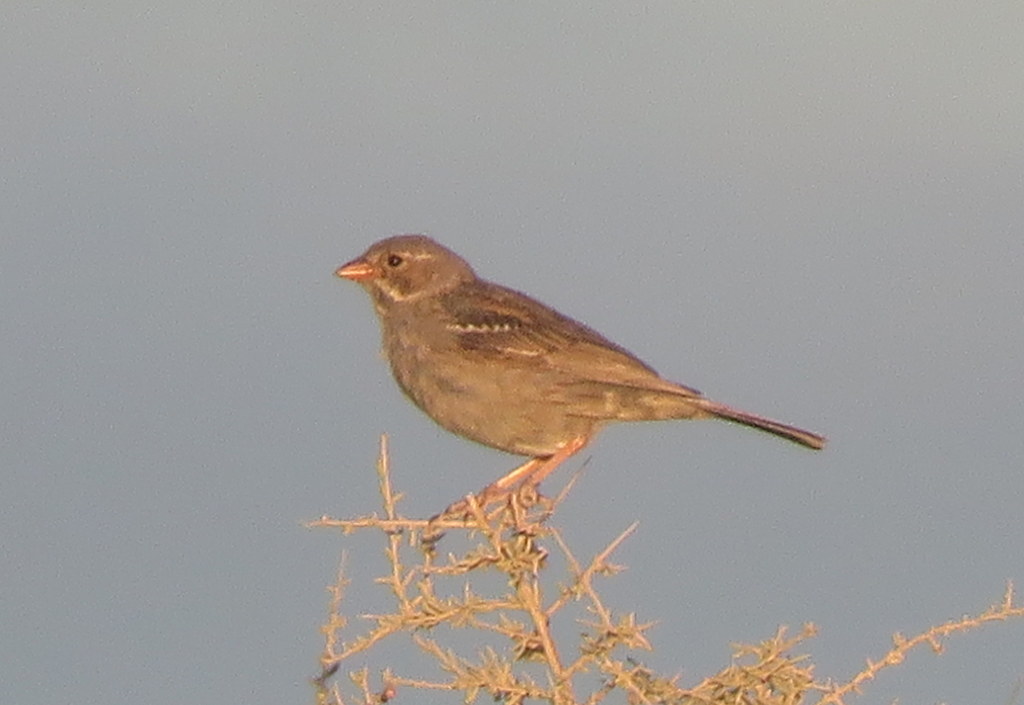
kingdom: Animalia
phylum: Chordata
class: Aves
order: Passeriformes
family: Thraupidae
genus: Rhopospina
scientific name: Rhopospina fruticeti
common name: Mourning sierra finch
